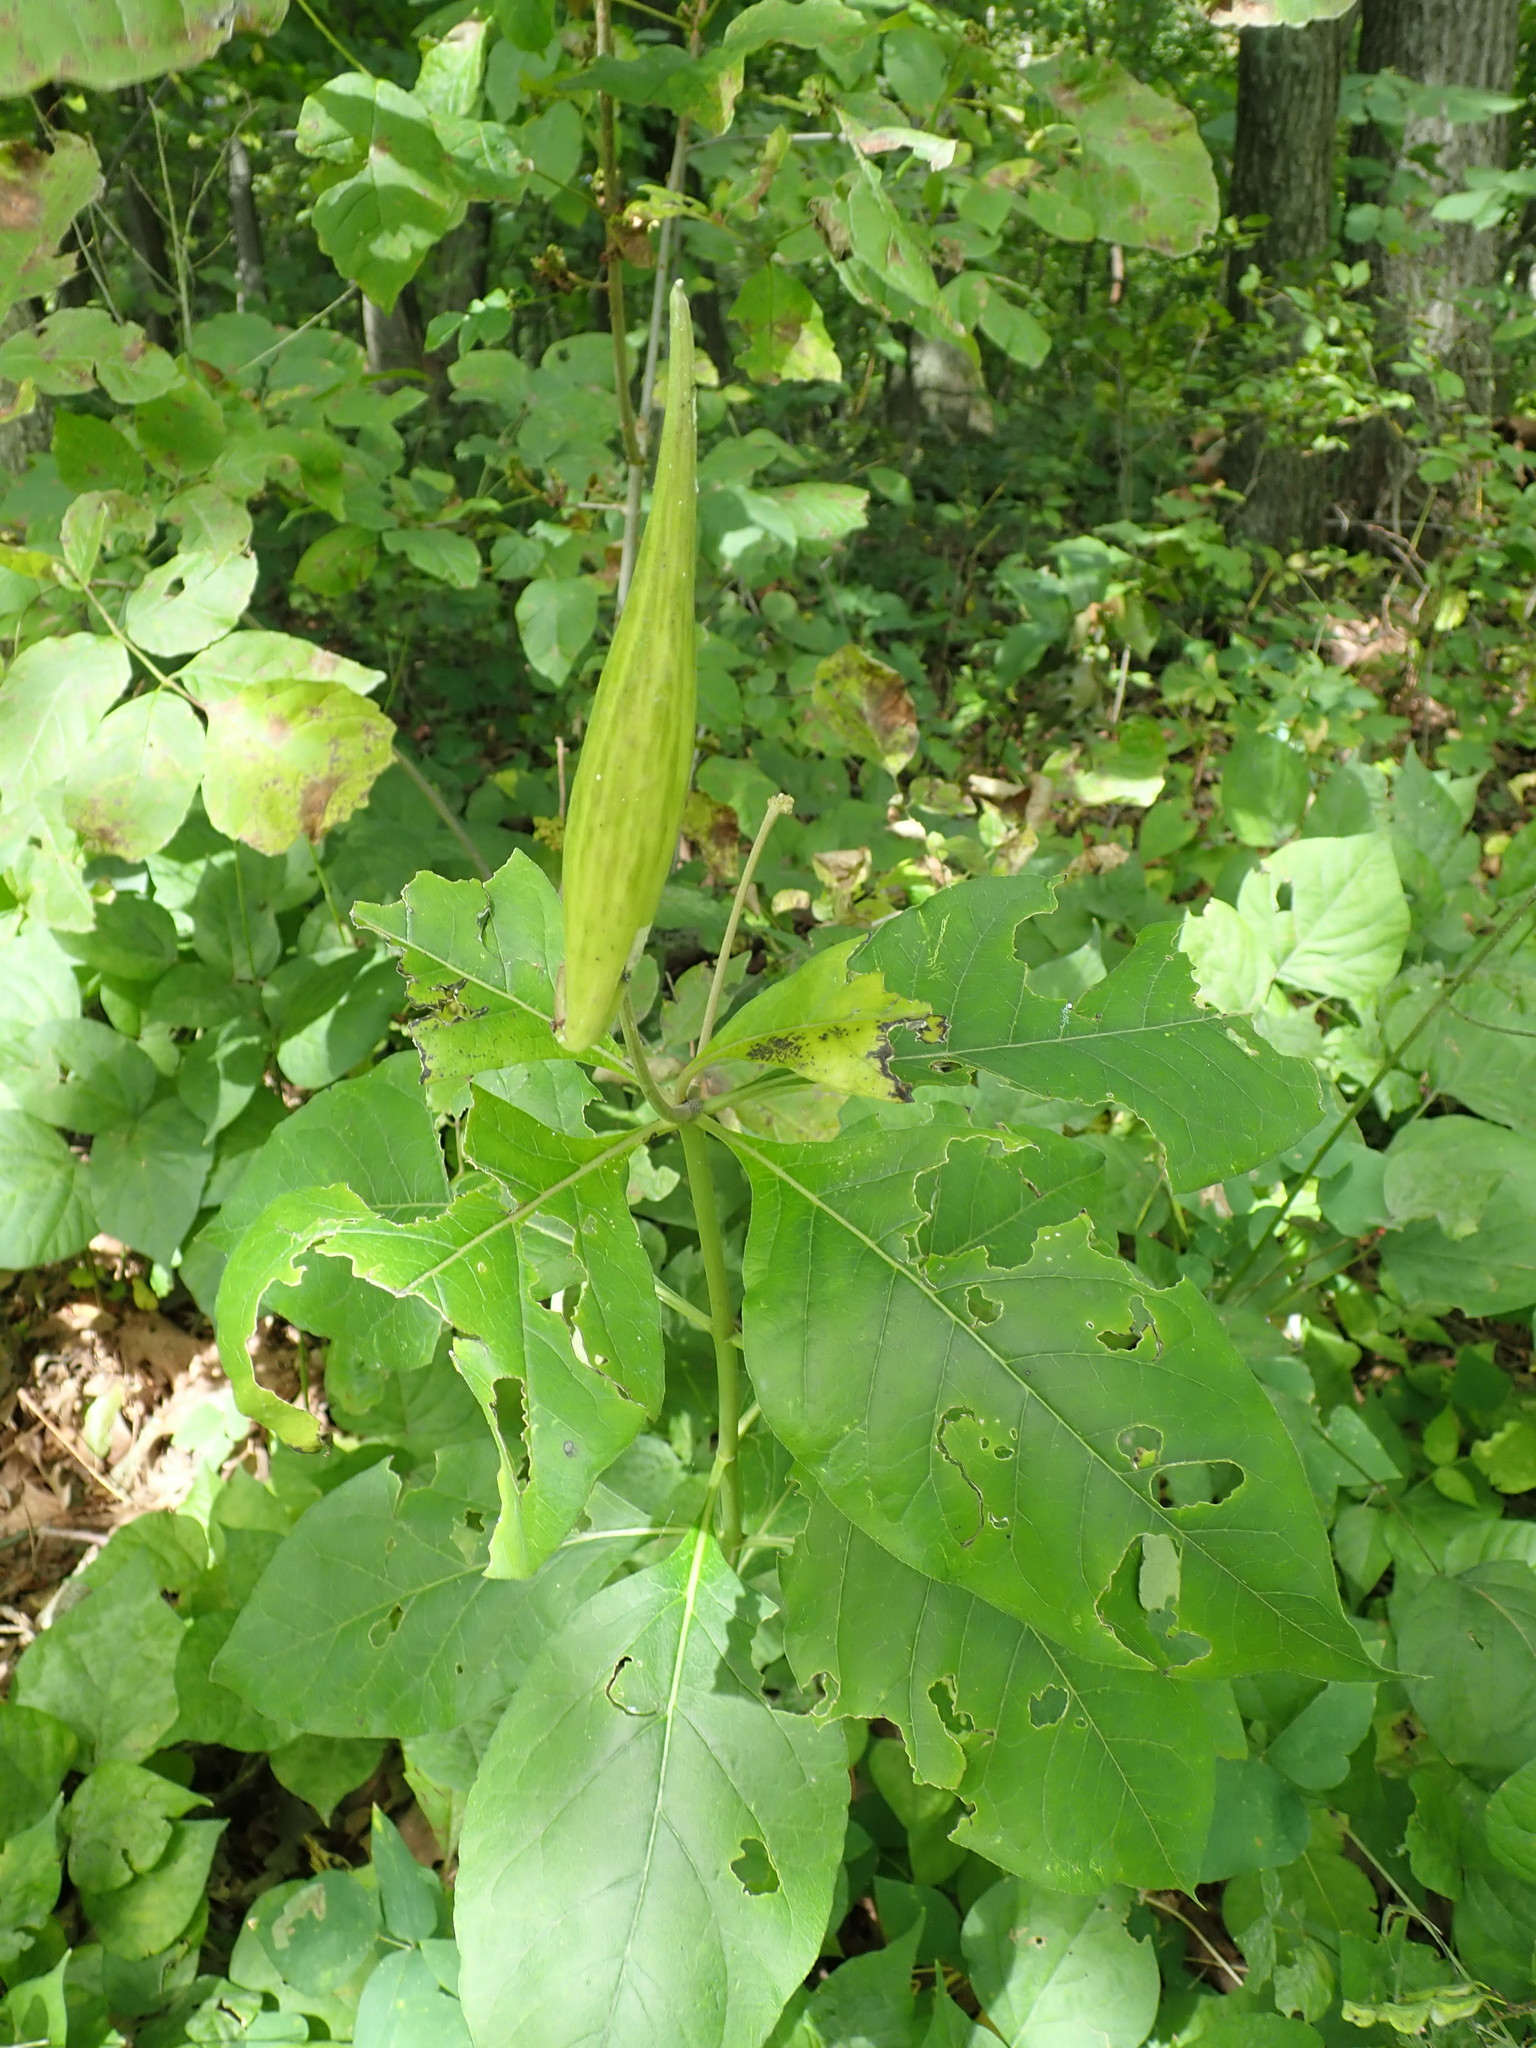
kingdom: Plantae
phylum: Tracheophyta
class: Magnoliopsida
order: Gentianales
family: Apocynaceae
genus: Asclepias
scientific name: Asclepias exaltata
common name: Poke milkweed
